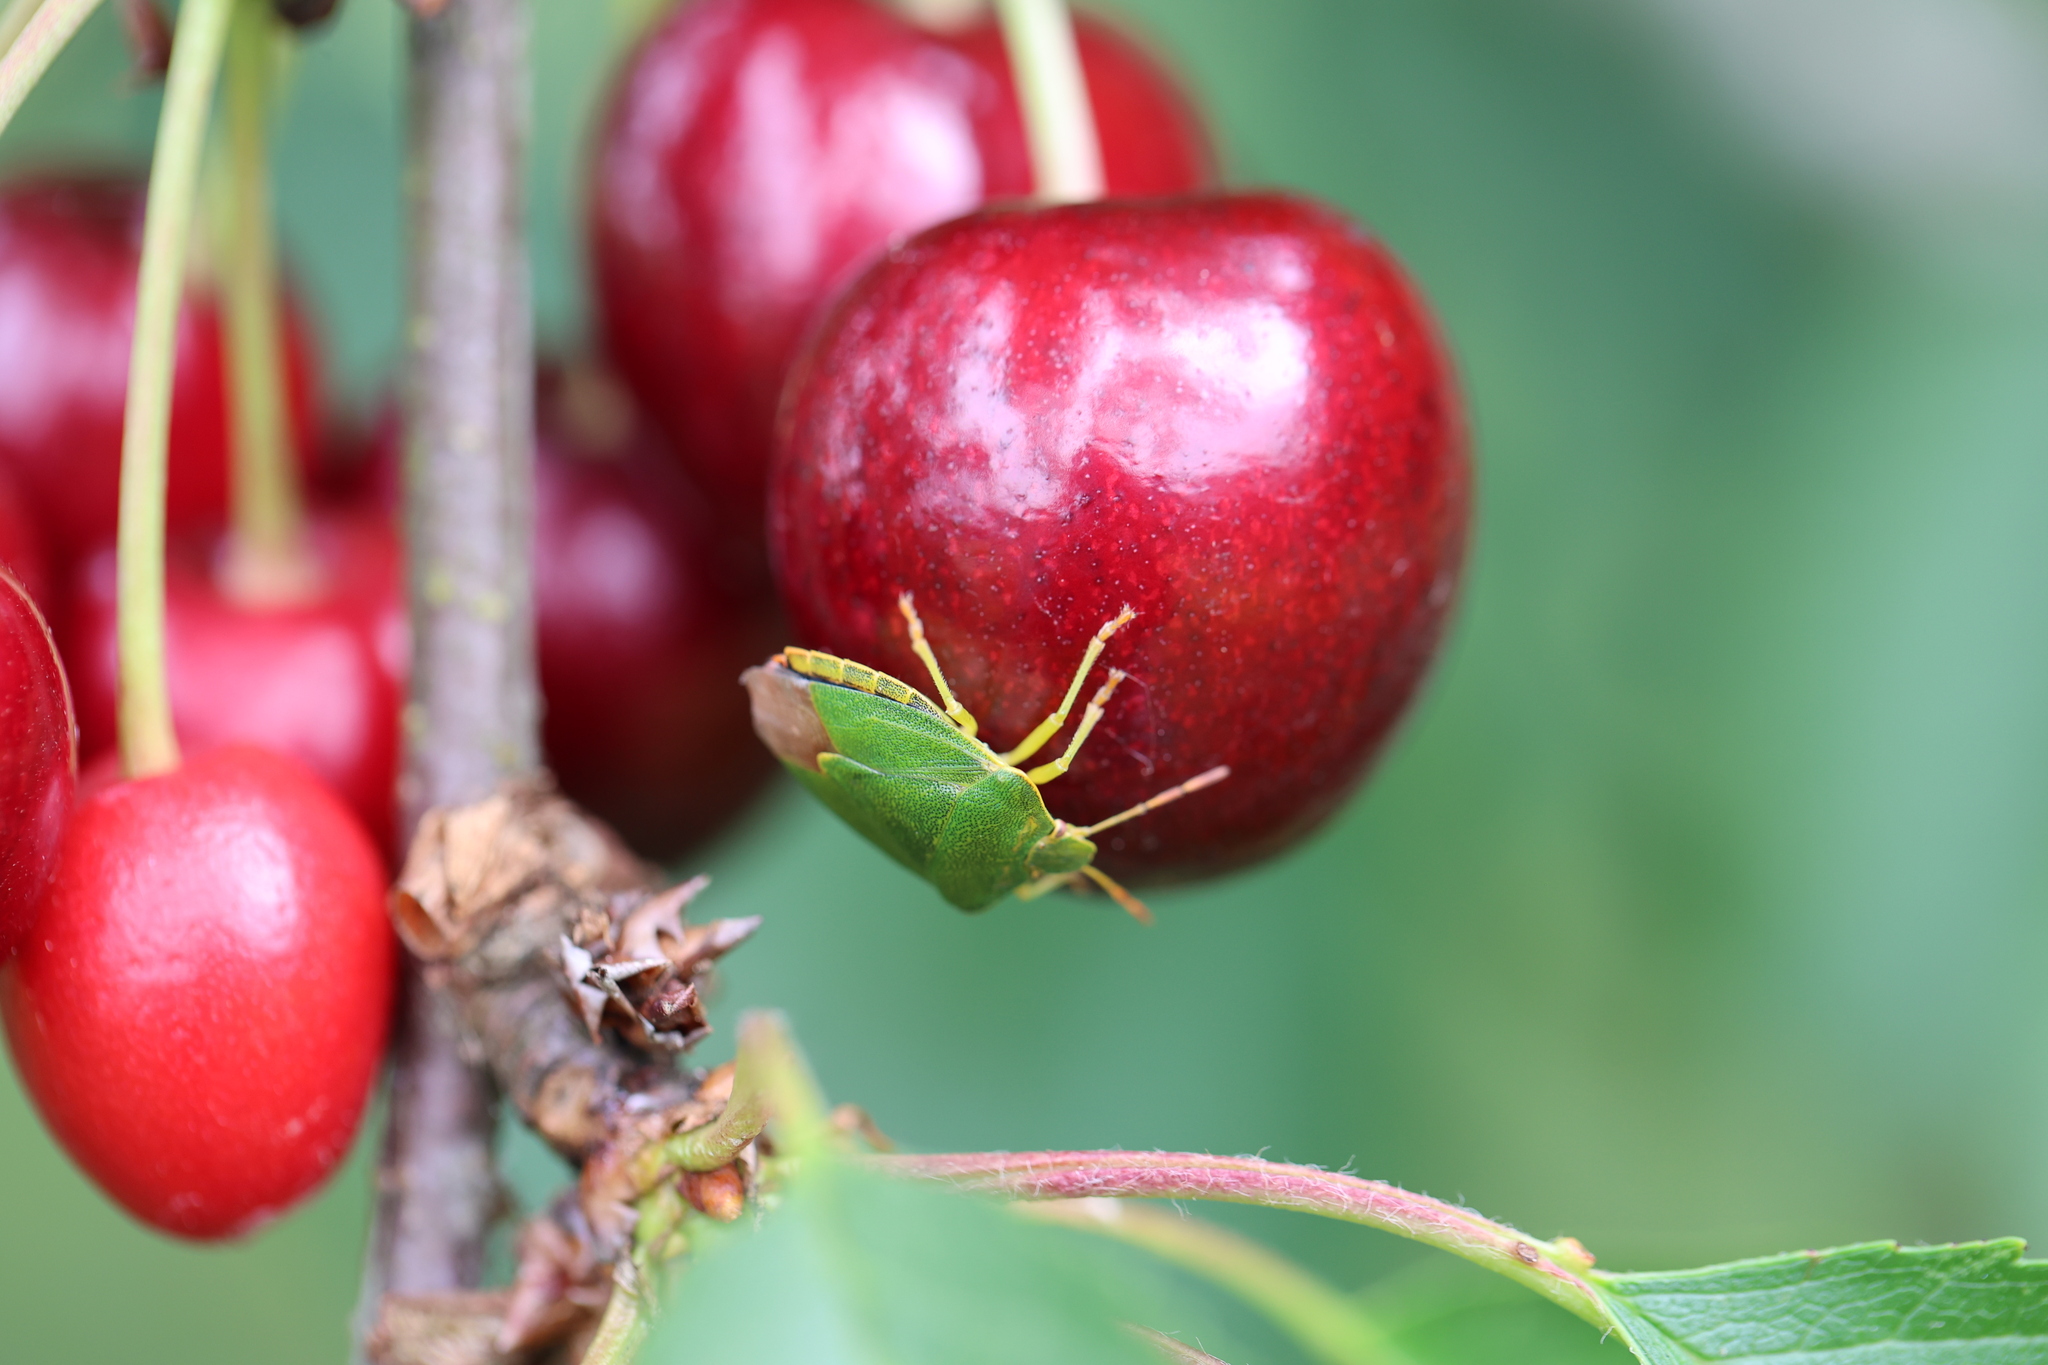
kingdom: Animalia
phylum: Arthropoda
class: Insecta
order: Hemiptera
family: Pentatomidae
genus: Palomena
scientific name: Palomena prasina
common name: Green shieldbug
